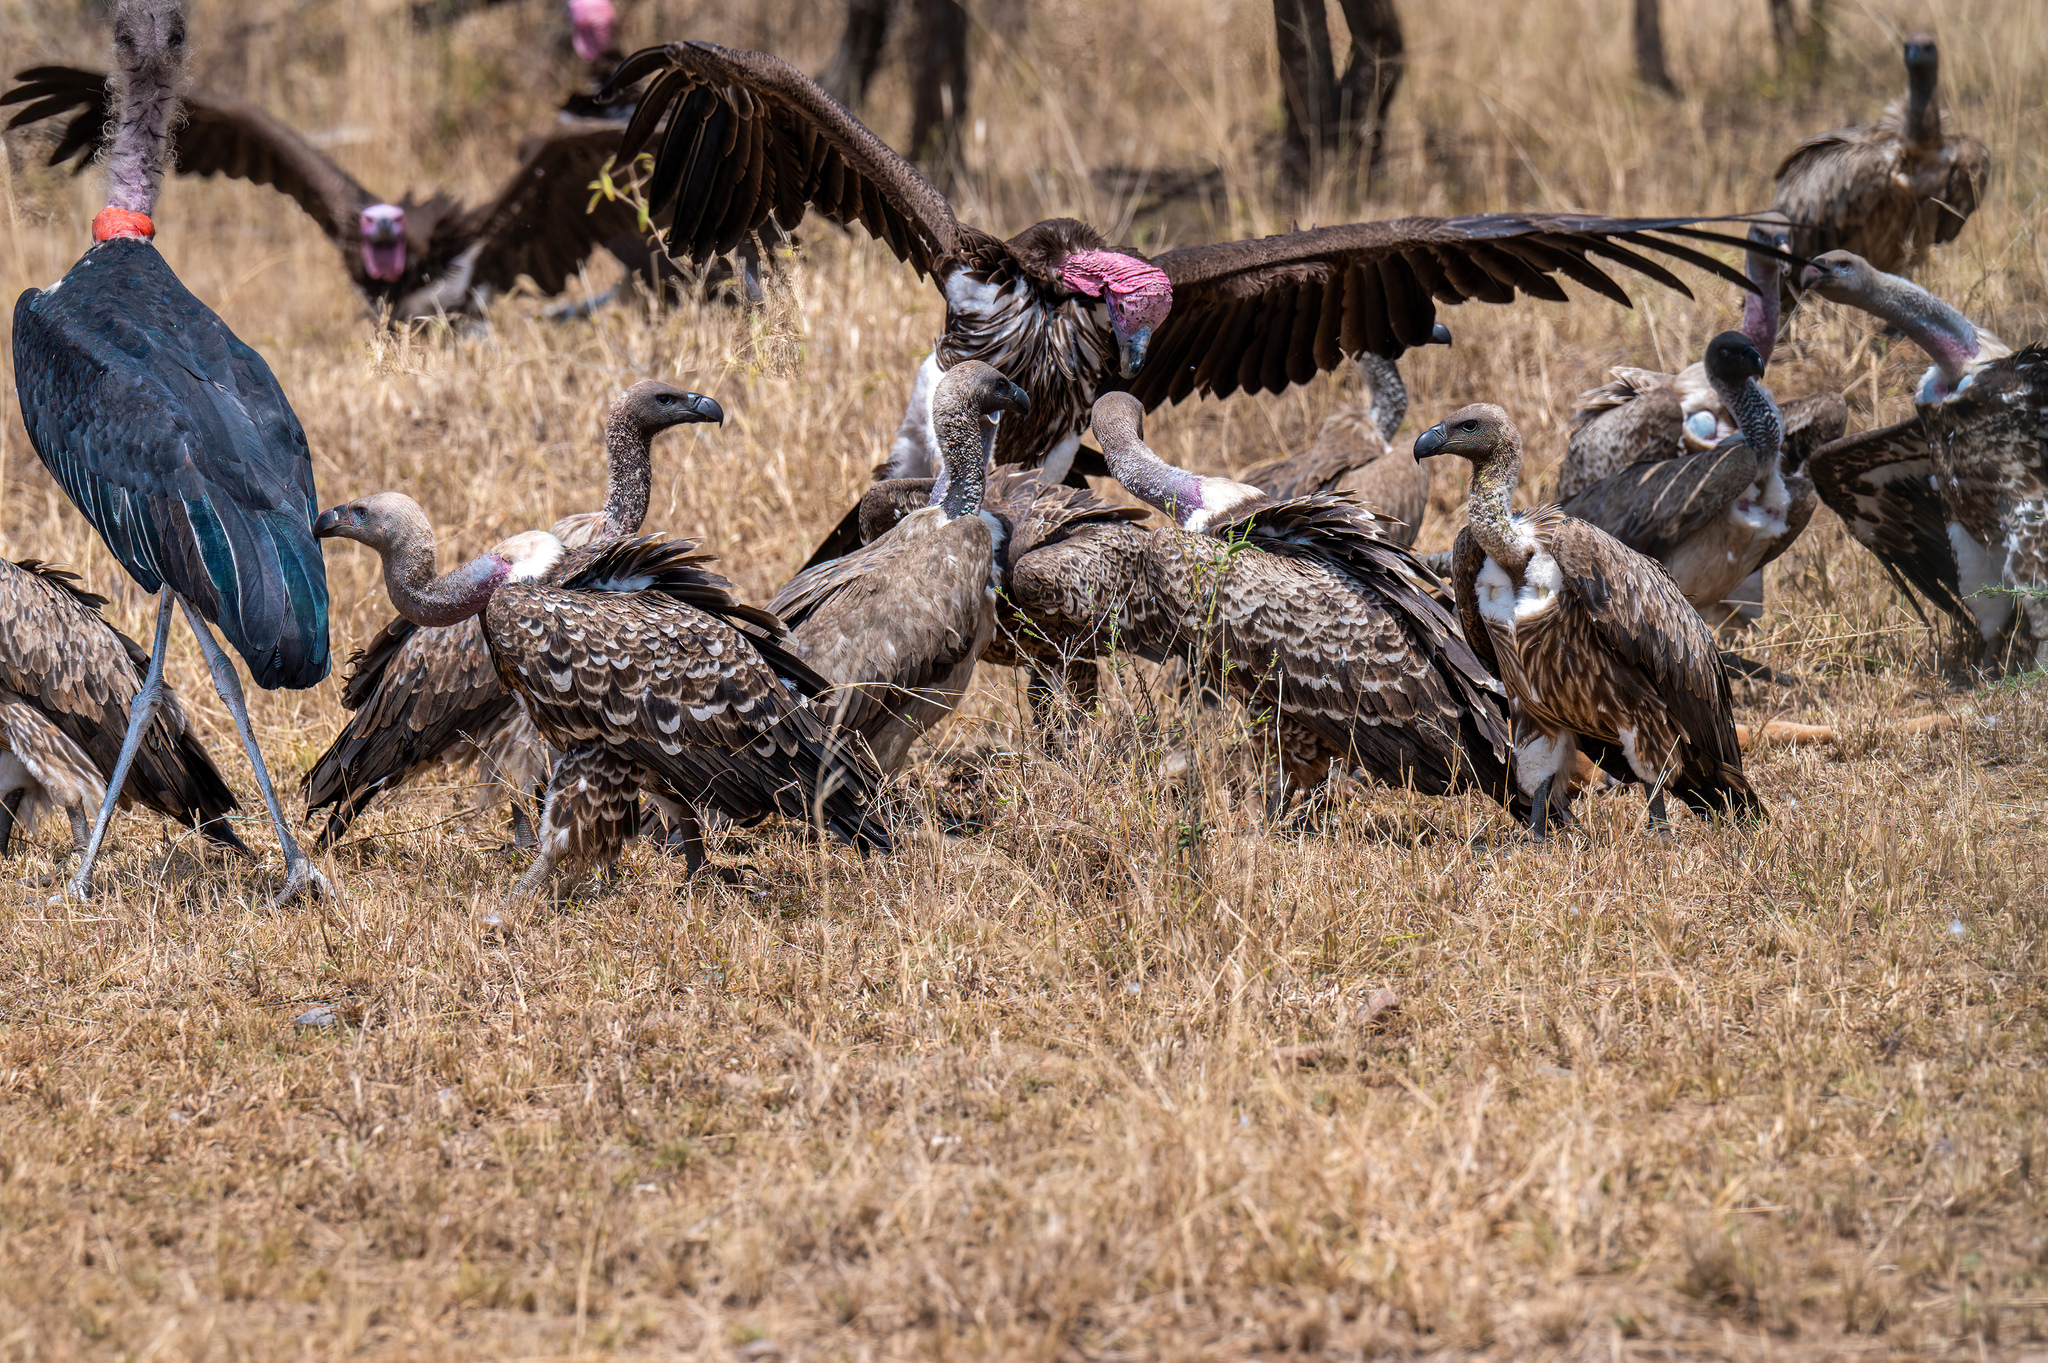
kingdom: Animalia
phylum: Chordata
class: Aves
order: Accipitriformes
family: Accipitridae
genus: Gyps
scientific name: Gyps rueppellii
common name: Rüppell's vulture
